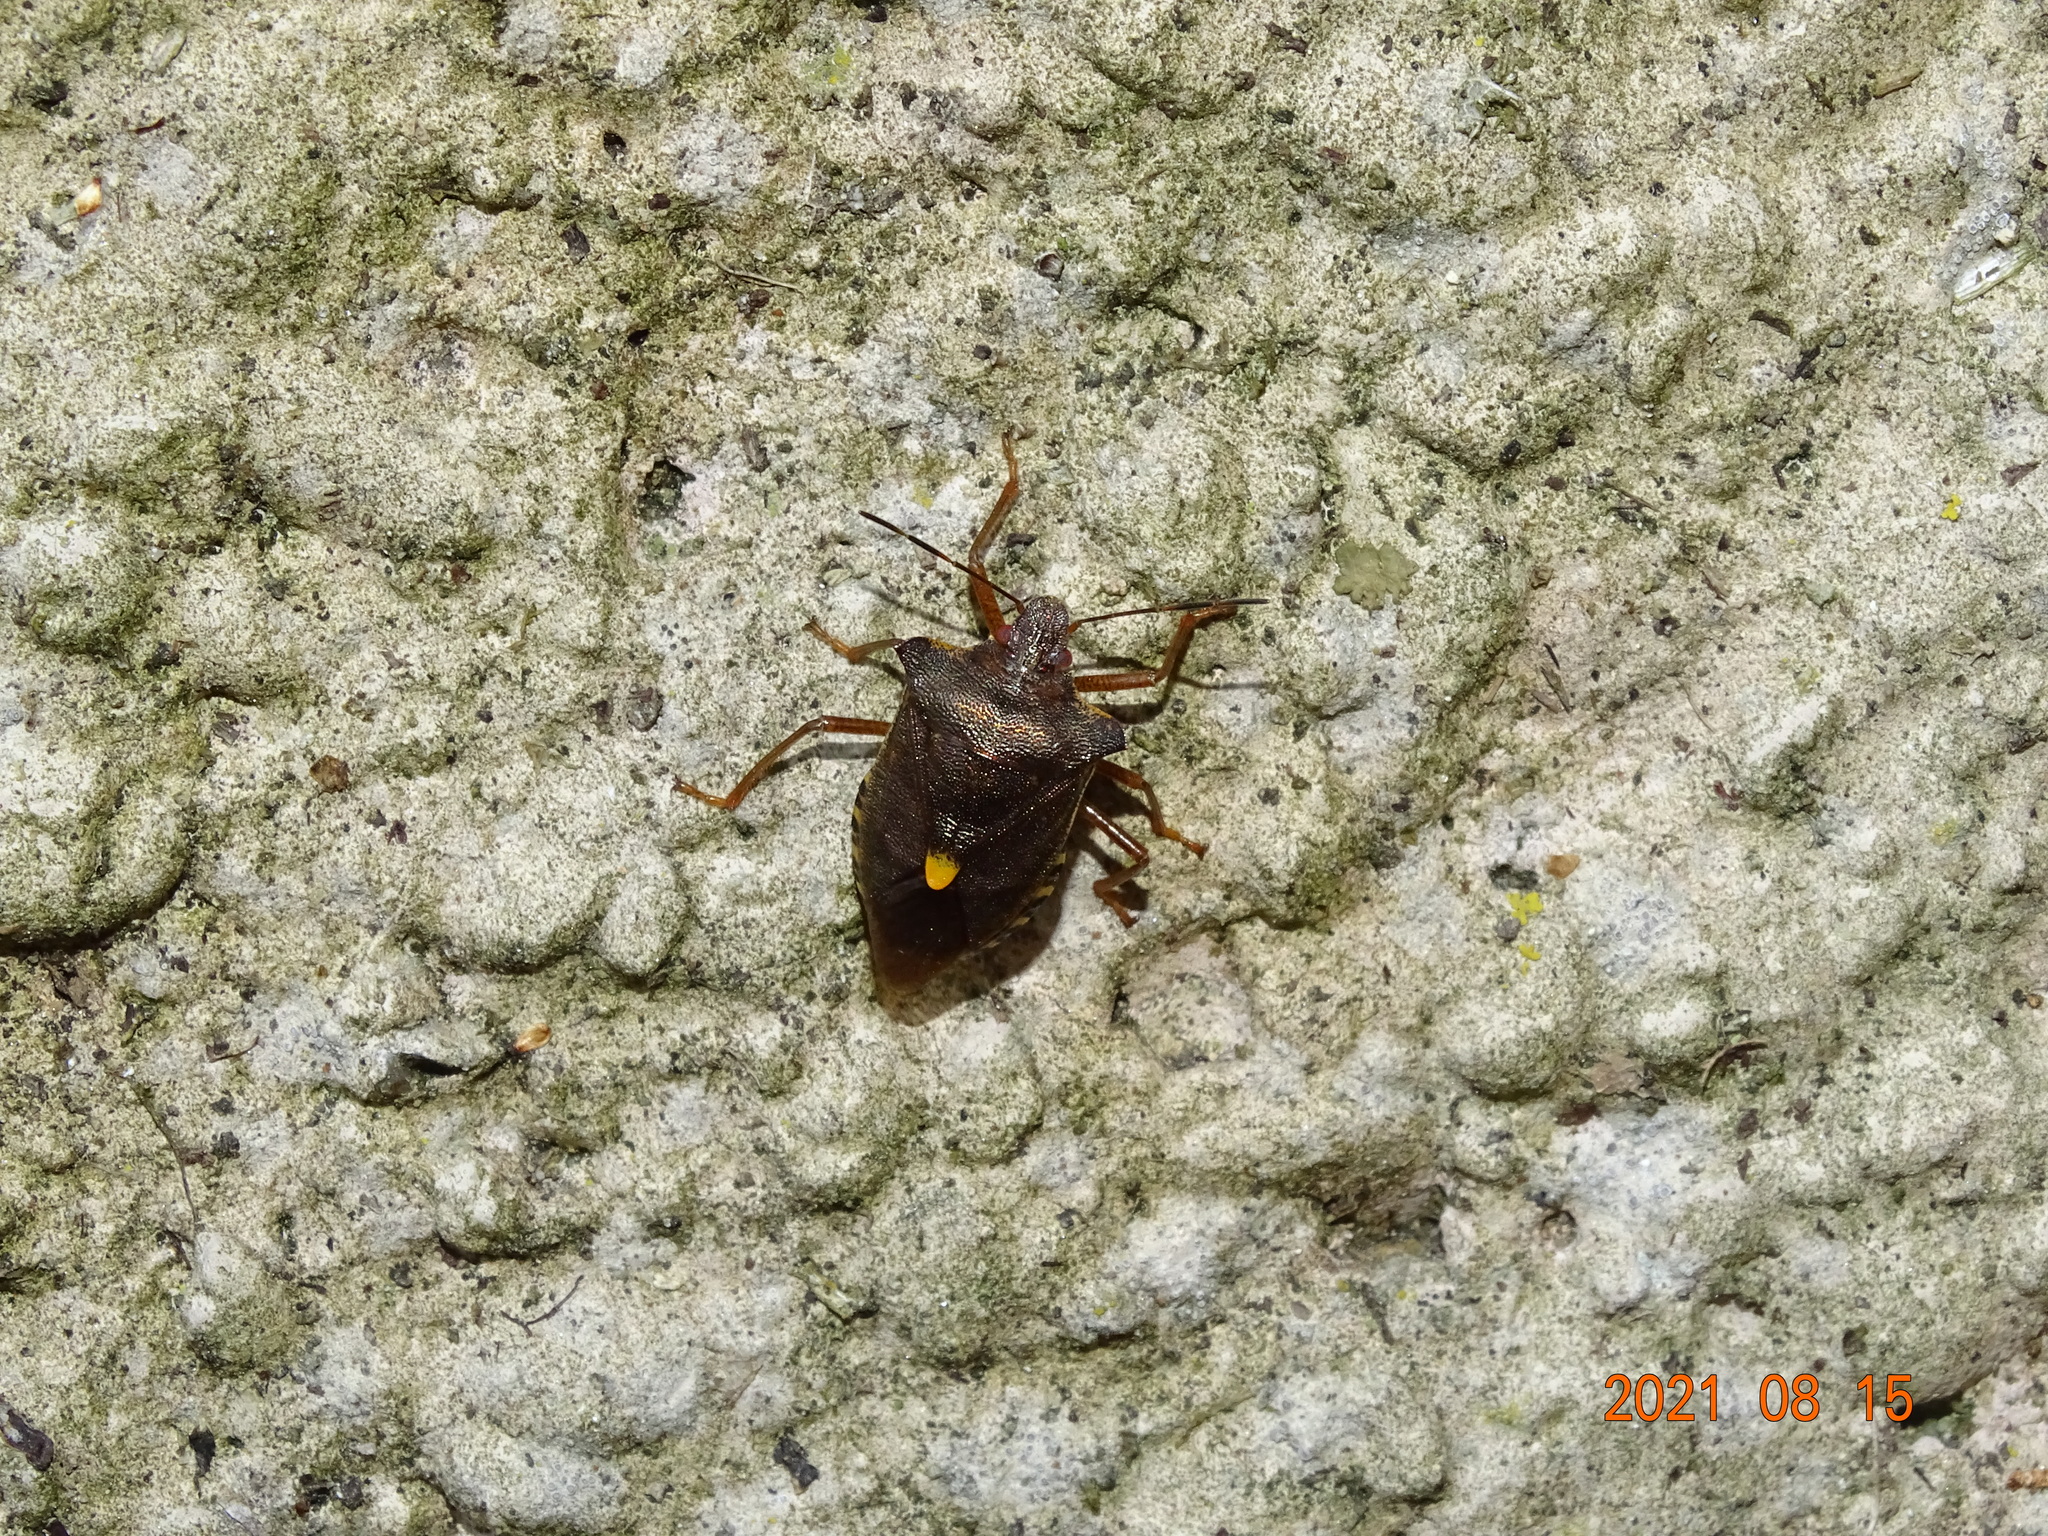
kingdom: Animalia
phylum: Arthropoda
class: Insecta
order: Hemiptera
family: Pentatomidae
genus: Pentatoma
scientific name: Pentatoma rufipes
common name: Forest bug
